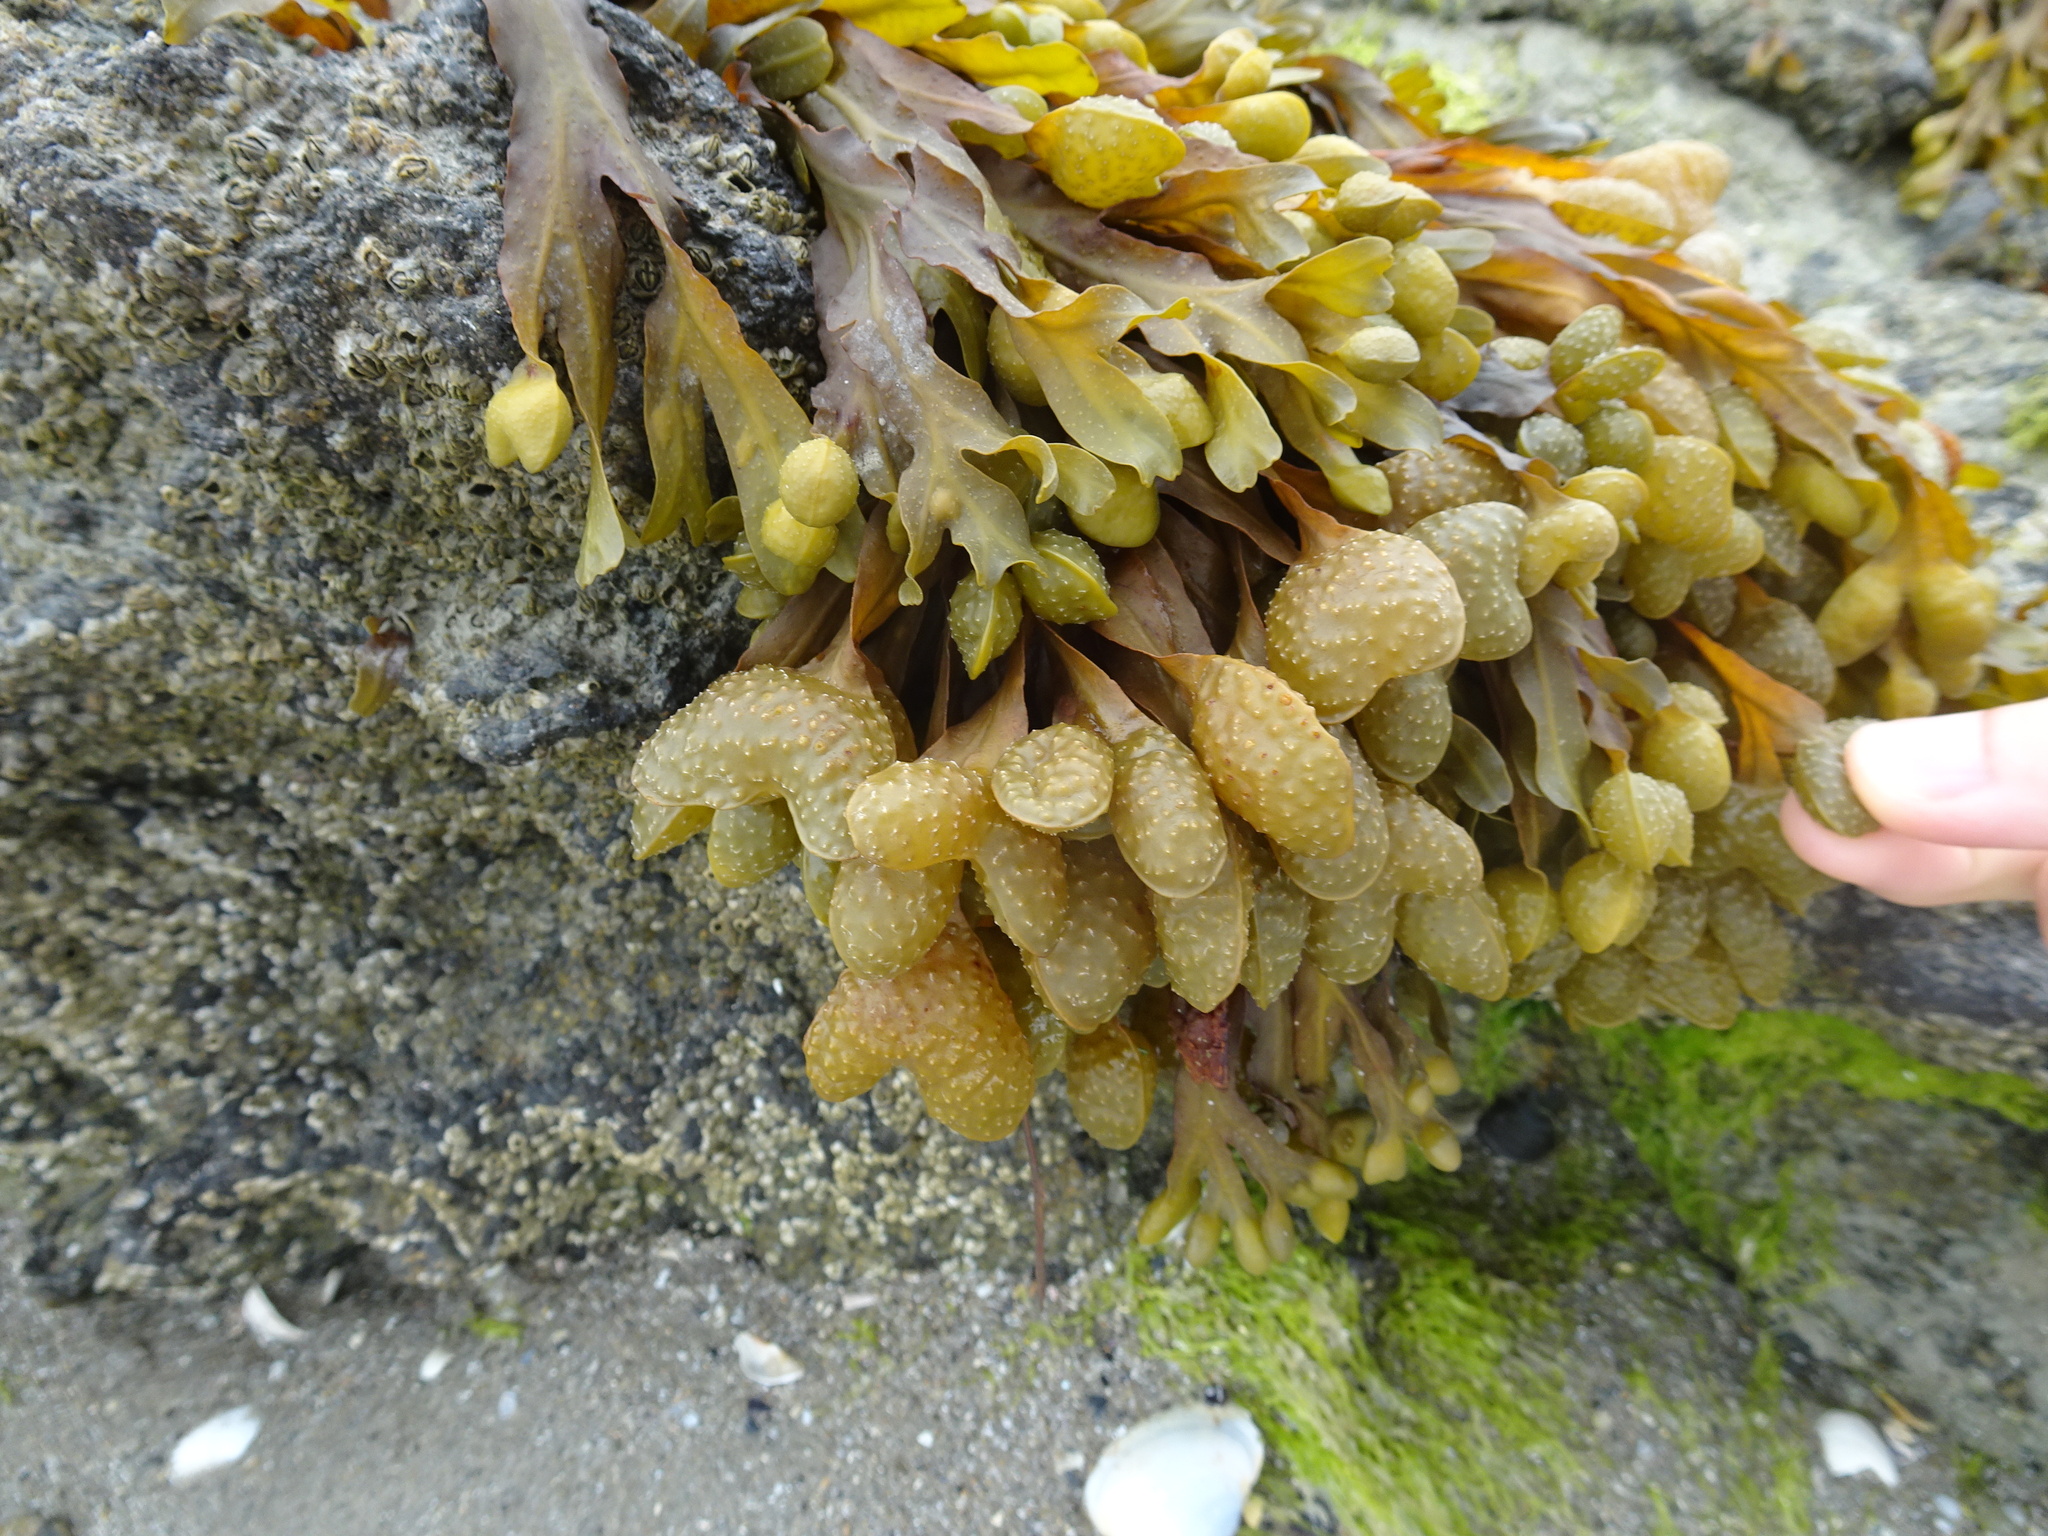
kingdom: Chromista
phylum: Ochrophyta
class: Phaeophyceae
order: Fucales
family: Fucaceae
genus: Fucus
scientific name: Fucus spiralis
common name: Spiral wrack
